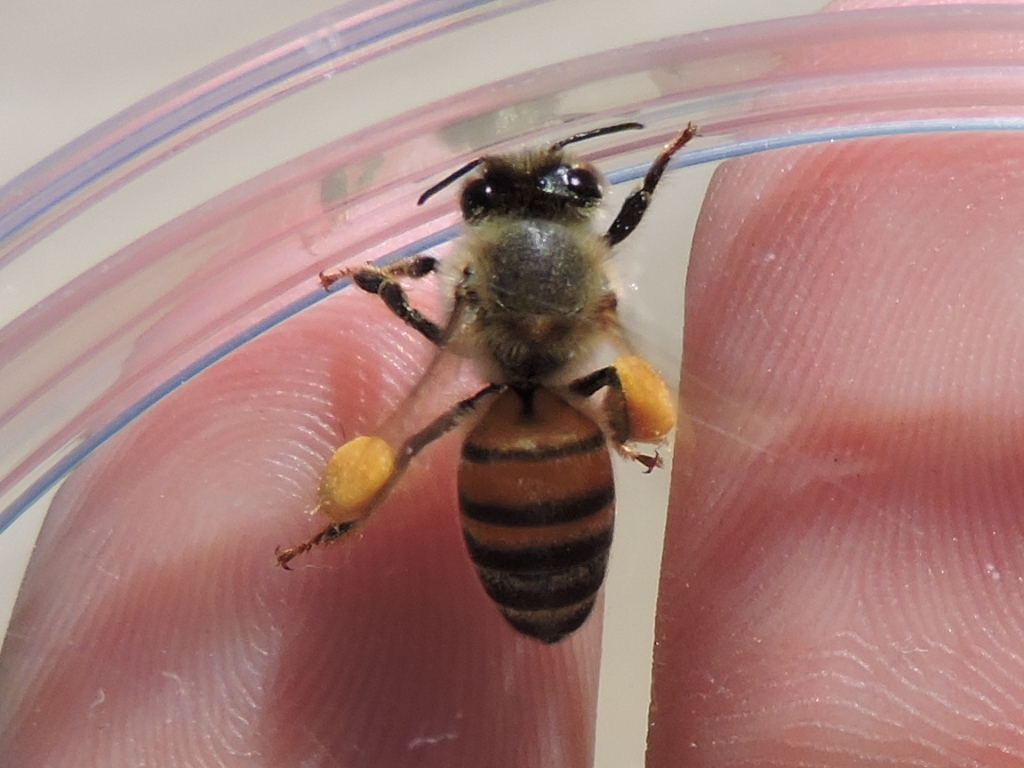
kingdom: Animalia
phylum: Arthropoda
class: Insecta
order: Hymenoptera
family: Apidae
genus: Apis
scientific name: Apis mellifera
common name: Honey bee
